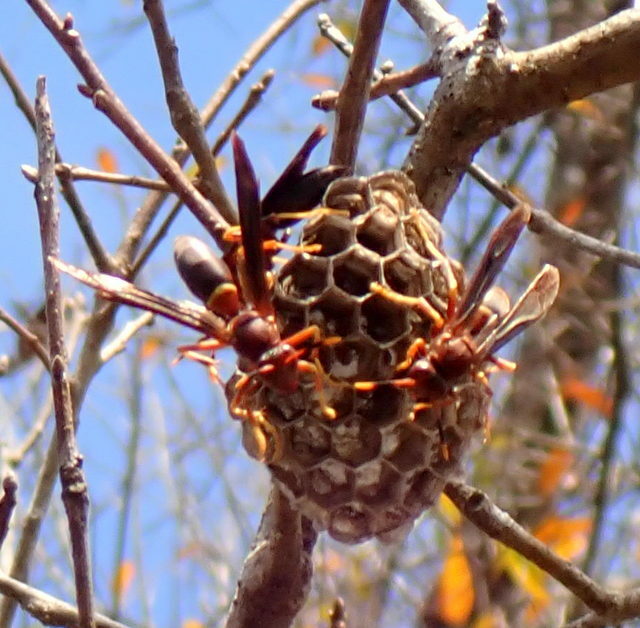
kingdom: Animalia
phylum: Arthropoda
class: Insecta
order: Hymenoptera
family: Eumenidae
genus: Polistes
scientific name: Polistes annularis
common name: Ringed paper wasp
